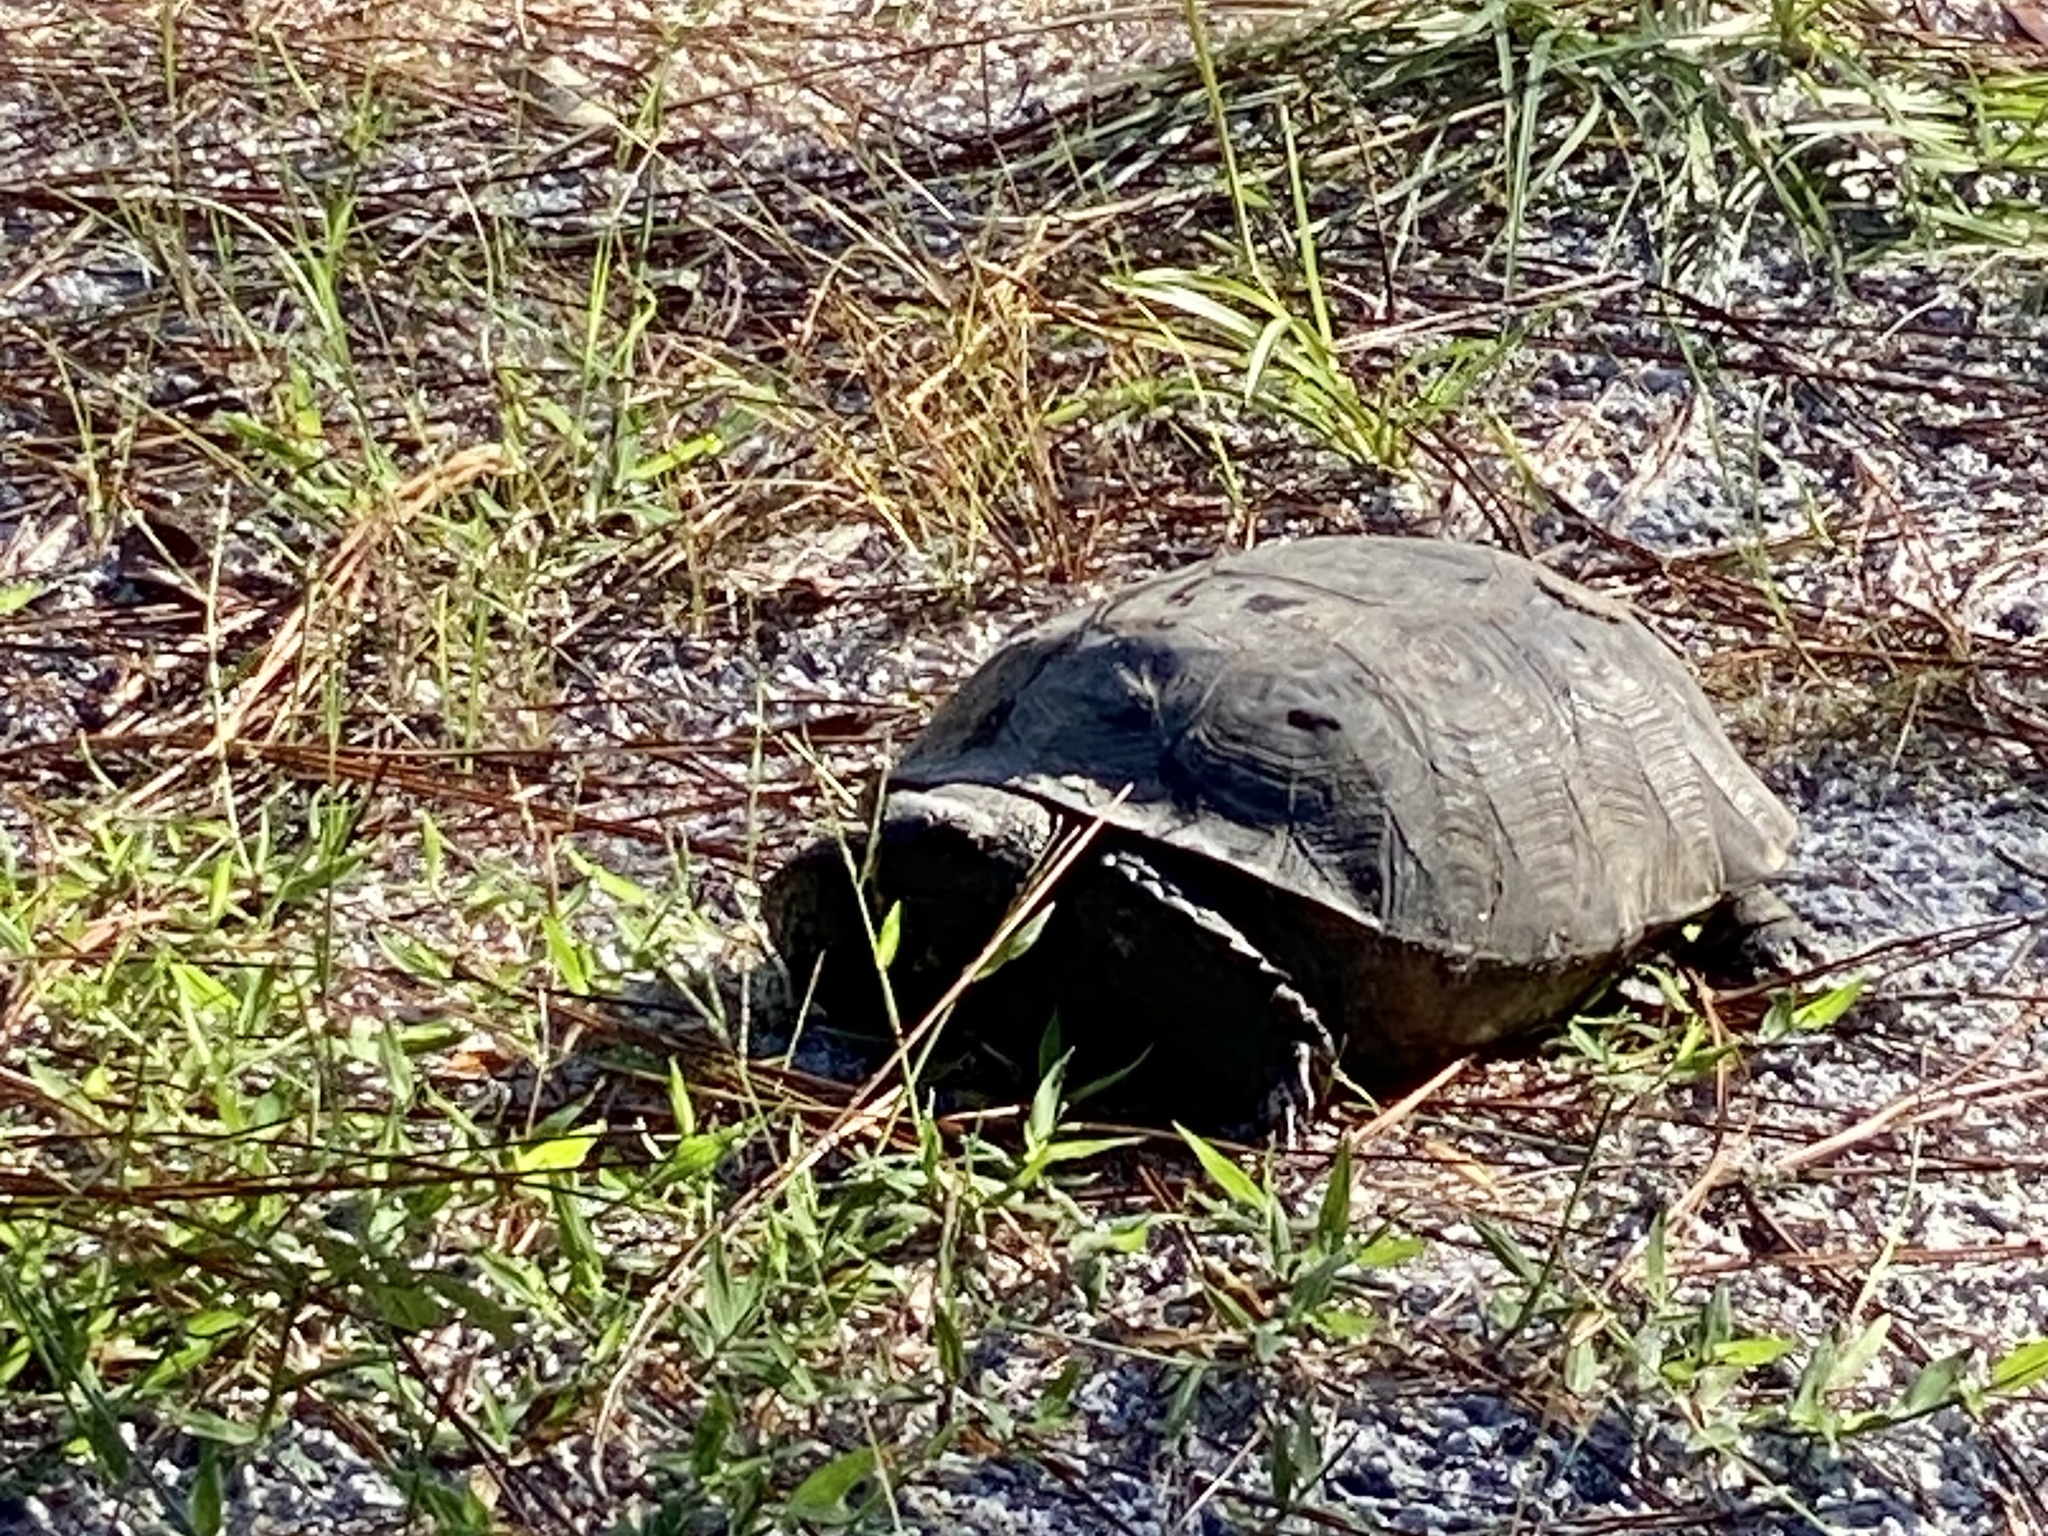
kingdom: Animalia
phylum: Chordata
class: Testudines
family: Testudinidae
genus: Gopherus
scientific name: Gopherus polyphemus
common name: Florida gopher tortoise
